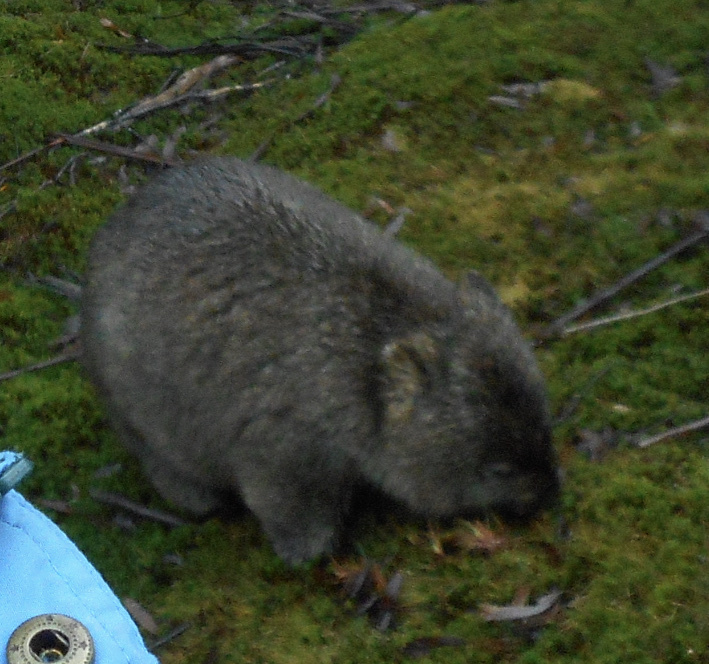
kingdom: Animalia
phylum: Chordata
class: Mammalia
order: Diprotodontia
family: Vombatidae
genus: Vombatus
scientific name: Vombatus ursinus
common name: Common wombat
